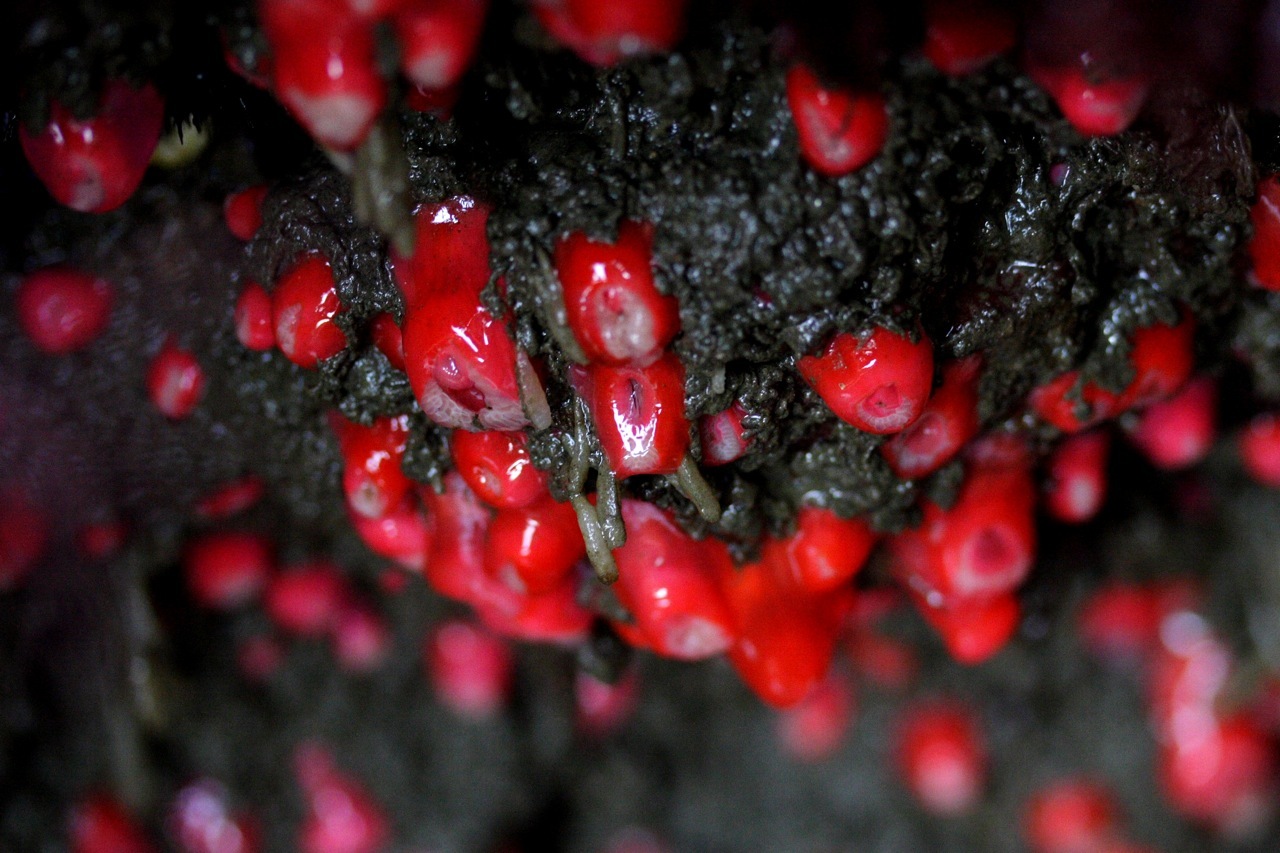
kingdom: Animalia
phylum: Cnidaria
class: Anthozoa
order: Corallimorpharia
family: Corallimorphidae
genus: Corynactis
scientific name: Corynactis californica
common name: Strawberry corallimorpharian
